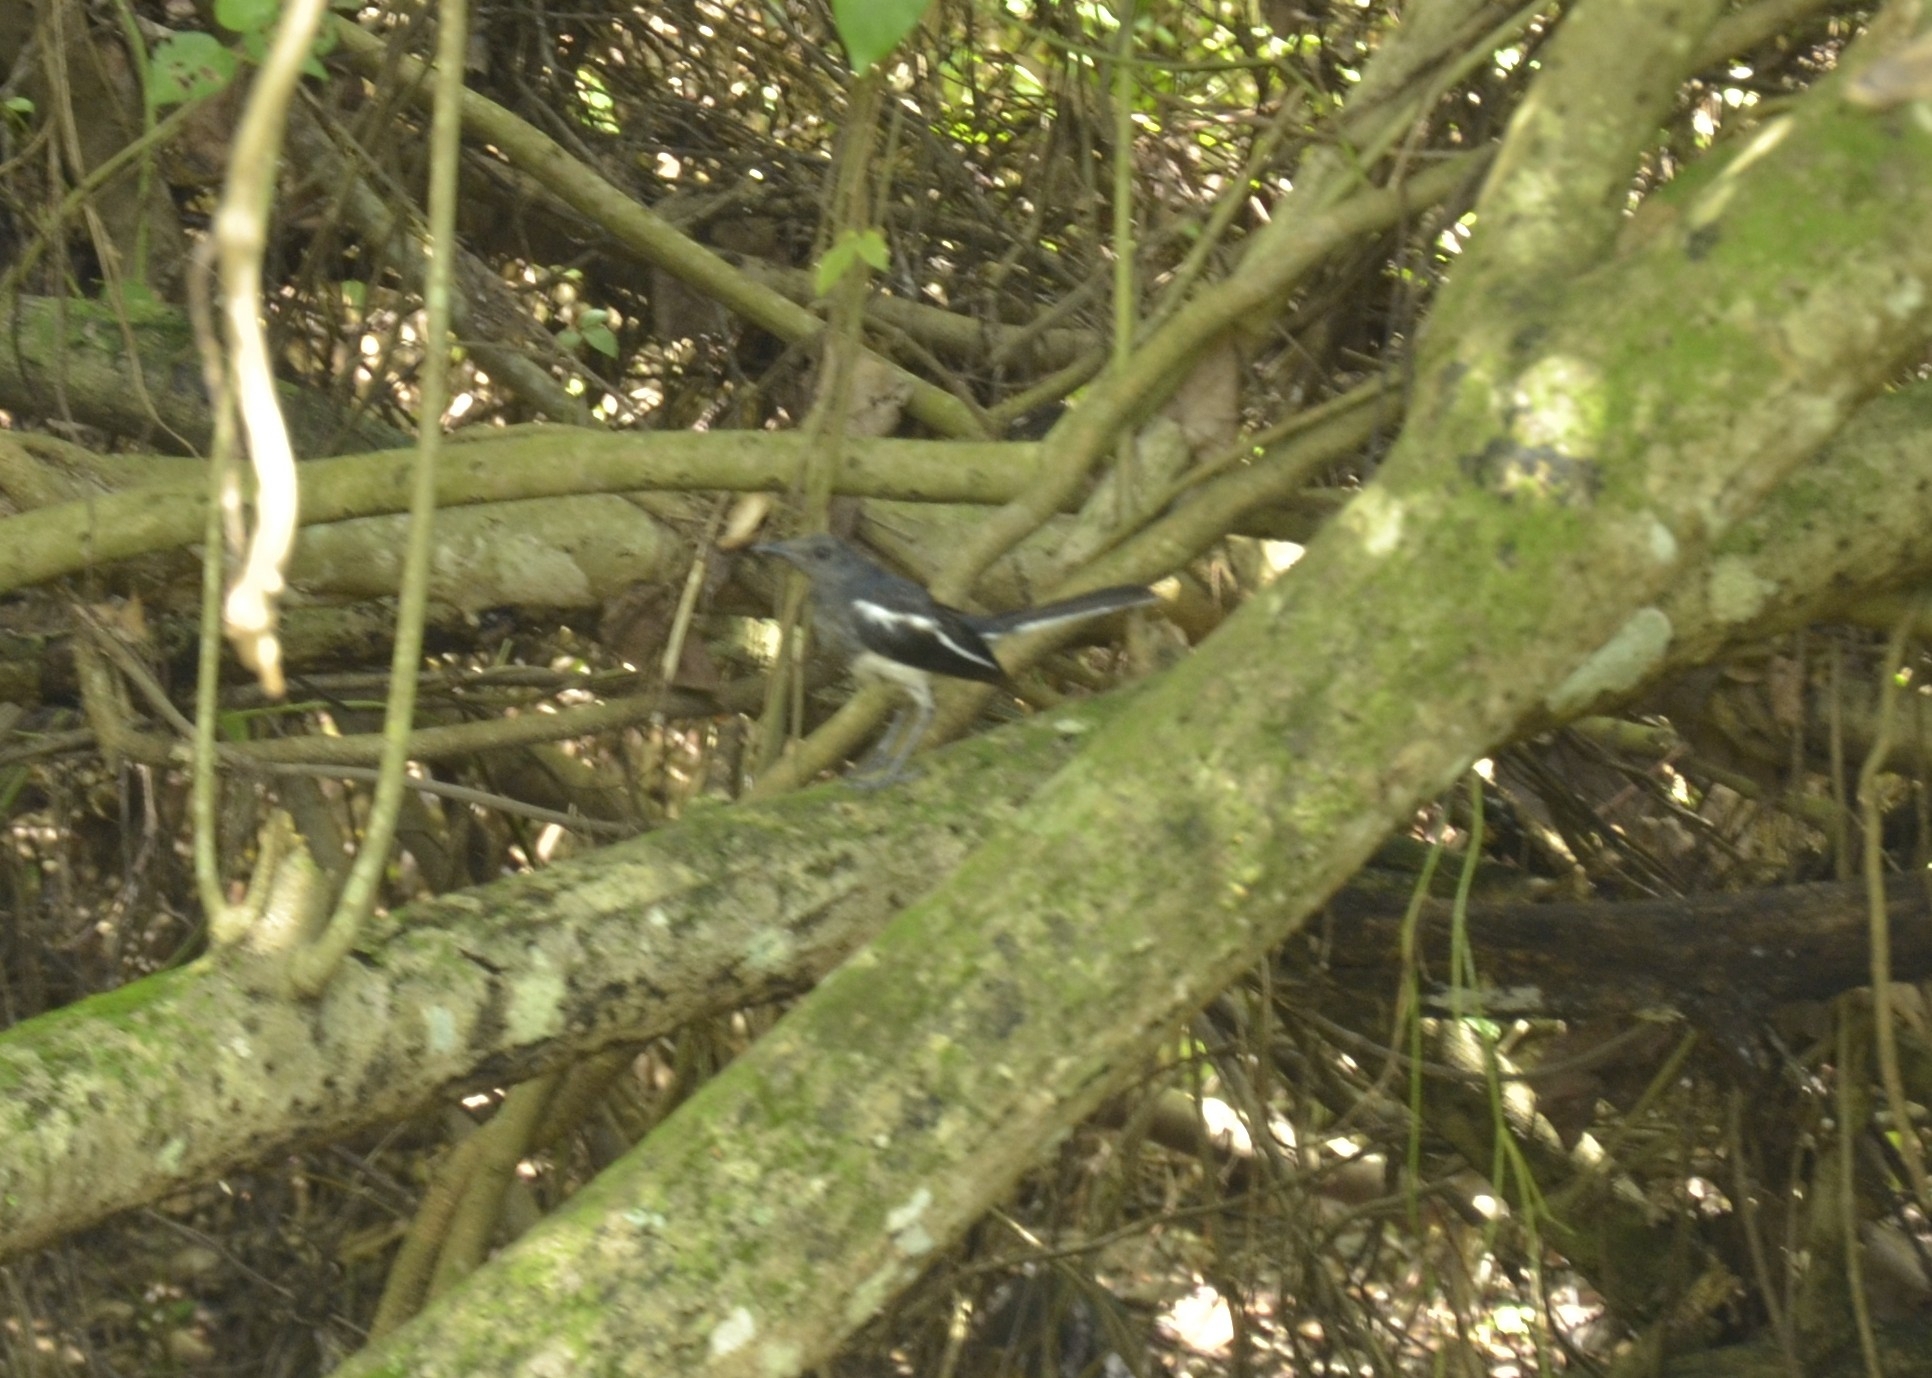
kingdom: Animalia
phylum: Chordata
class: Aves
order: Passeriformes
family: Muscicapidae
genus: Copsychus
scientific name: Copsychus saularis
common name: Oriental magpie-robin
